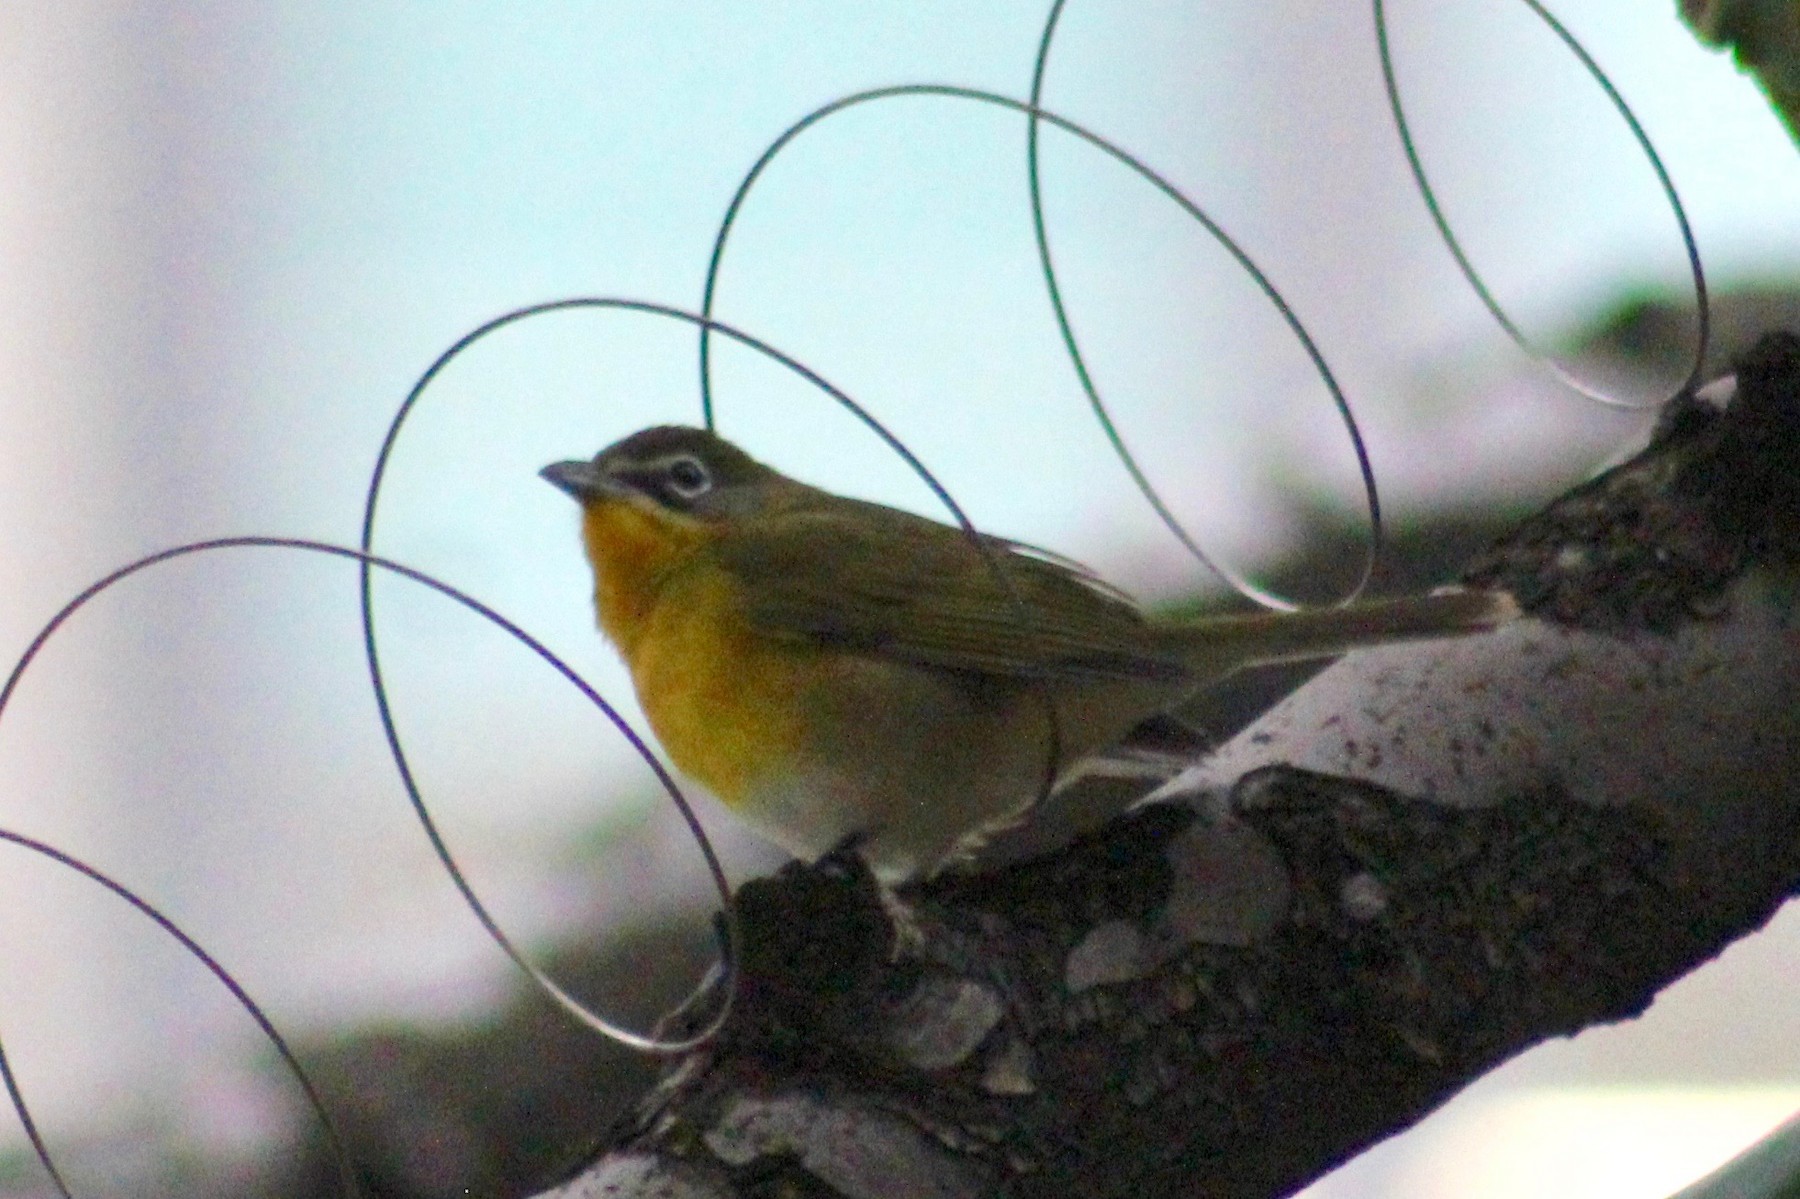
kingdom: Animalia
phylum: Chordata
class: Aves
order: Passeriformes
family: Parulidae
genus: Icteria
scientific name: Icteria virens
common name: Yellow-breasted chat
